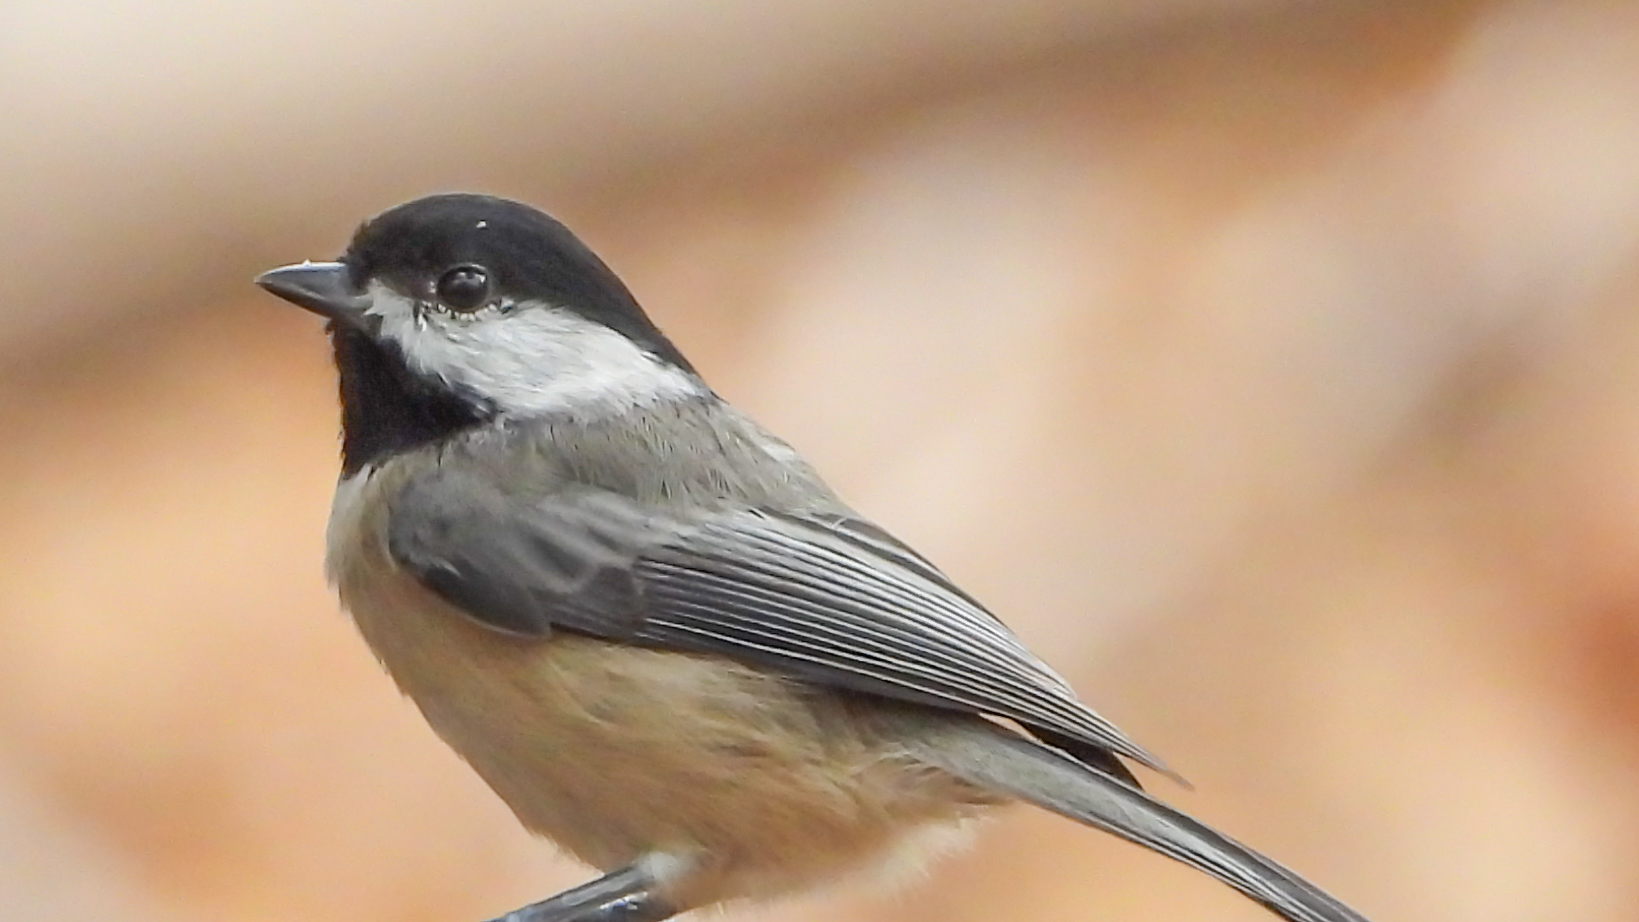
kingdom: Animalia
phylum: Chordata
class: Aves
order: Passeriformes
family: Paridae
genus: Poecile
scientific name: Poecile carolinensis
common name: Carolina chickadee
